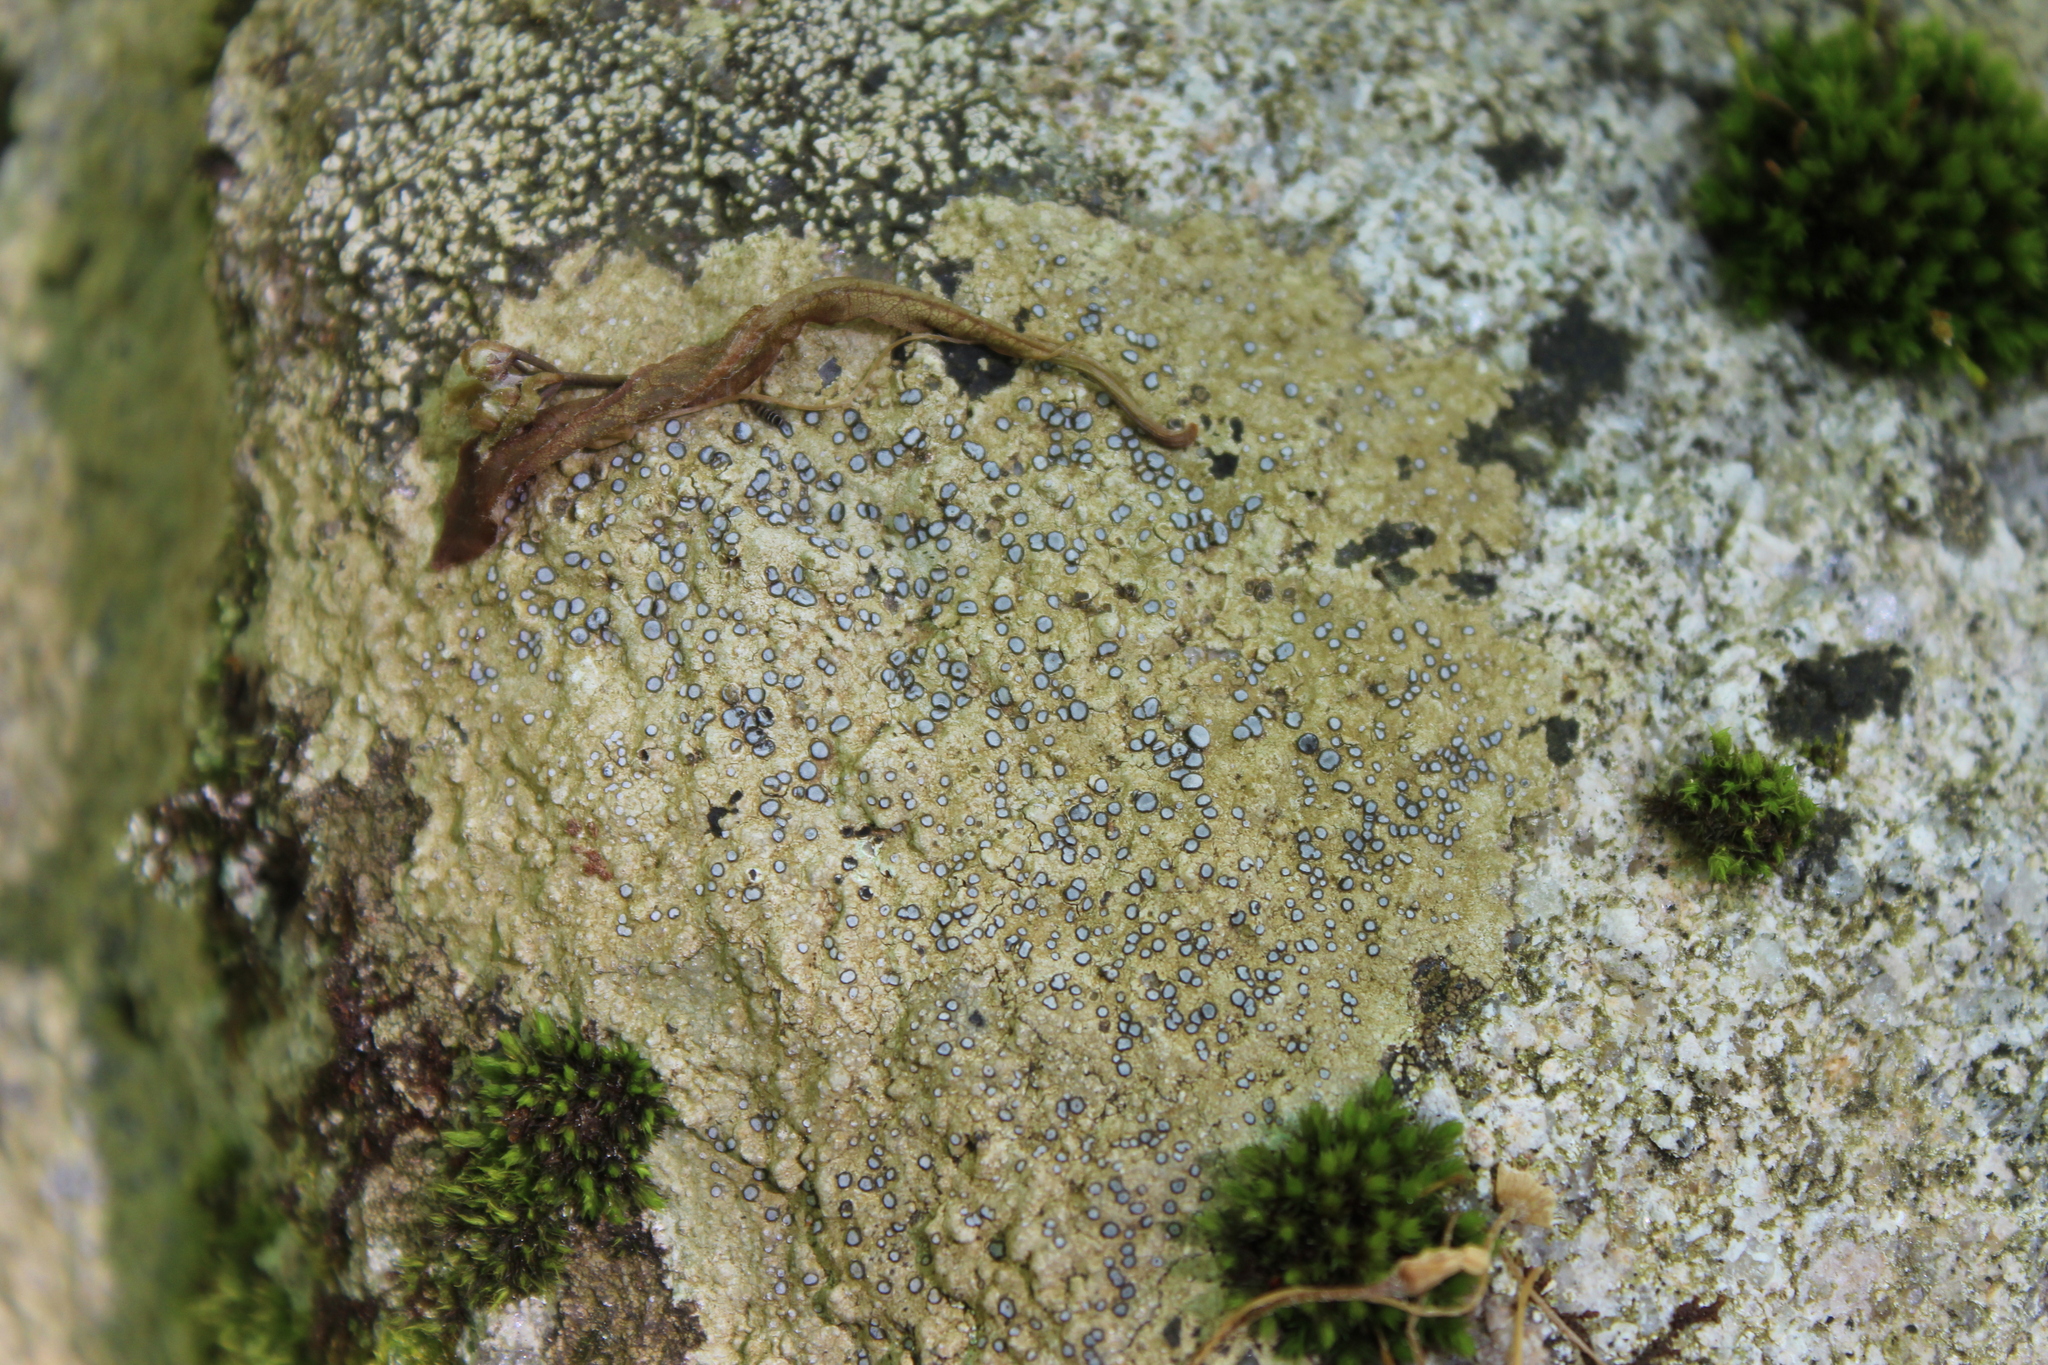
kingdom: Fungi
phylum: Ascomycota
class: Lecanoromycetes
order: Lecideales
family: Lecideaceae
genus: Porpidia
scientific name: Porpidia albocaerulescens
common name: Smokey-eyed boulder lichen
